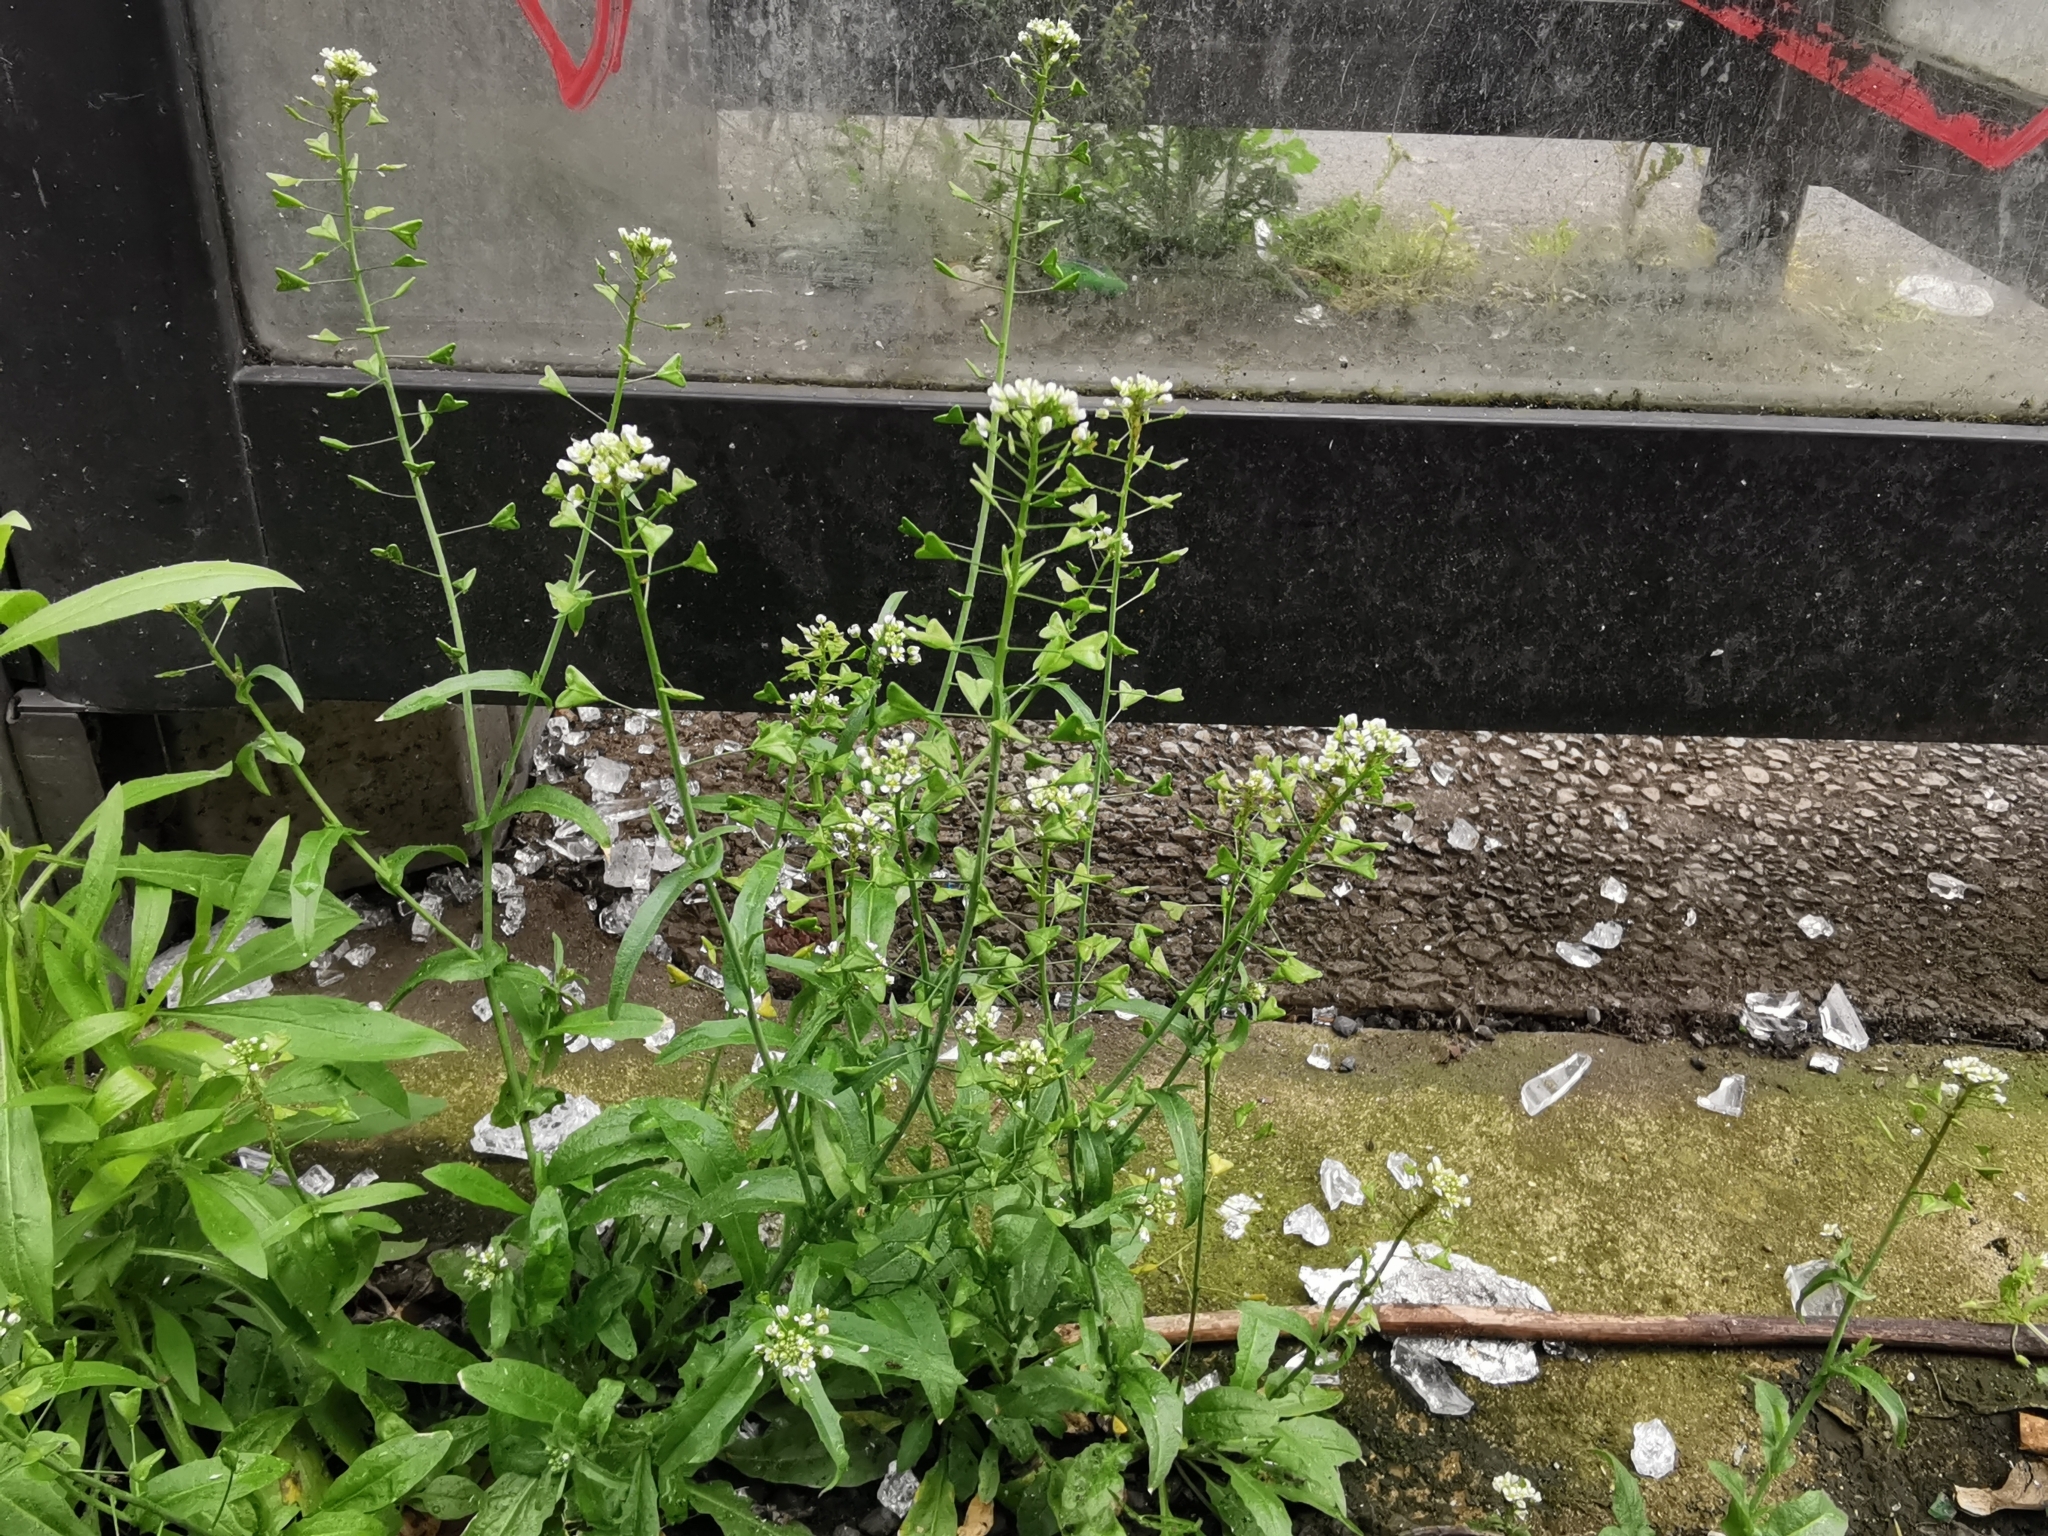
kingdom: Plantae
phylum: Tracheophyta
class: Magnoliopsida
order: Brassicales
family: Brassicaceae
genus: Capsella
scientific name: Capsella bursa-pastoris
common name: Shepherd's purse
